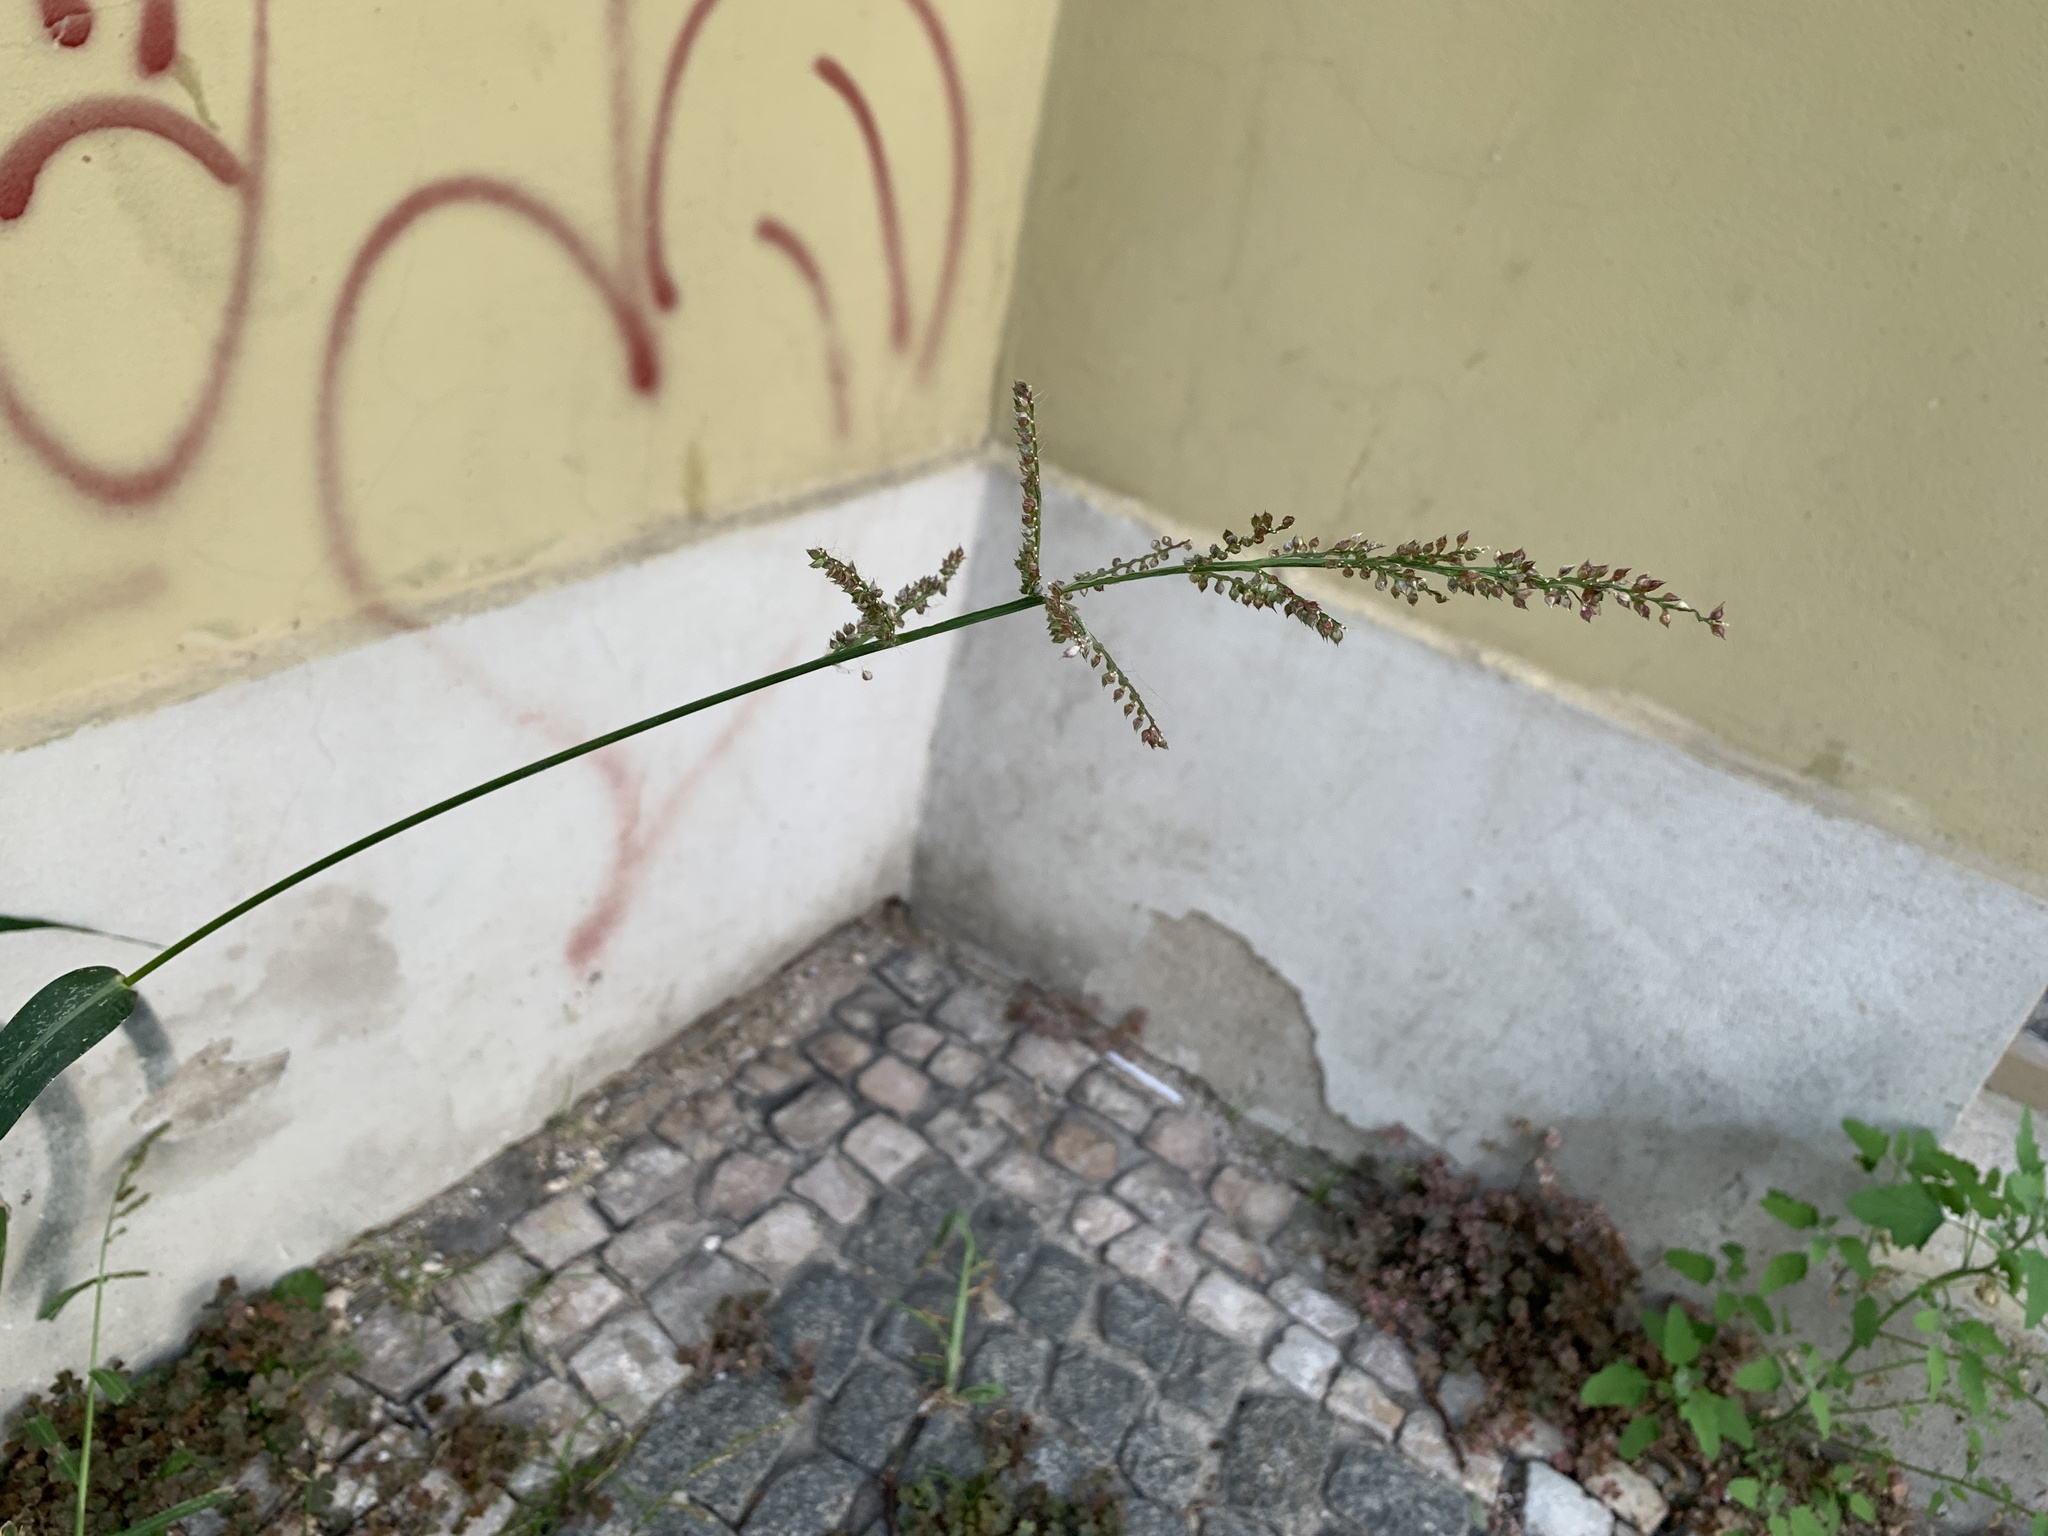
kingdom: Plantae
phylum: Tracheophyta
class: Liliopsida
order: Poales
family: Poaceae
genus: Echinochloa
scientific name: Echinochloa crus-galli
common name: Cockspur
